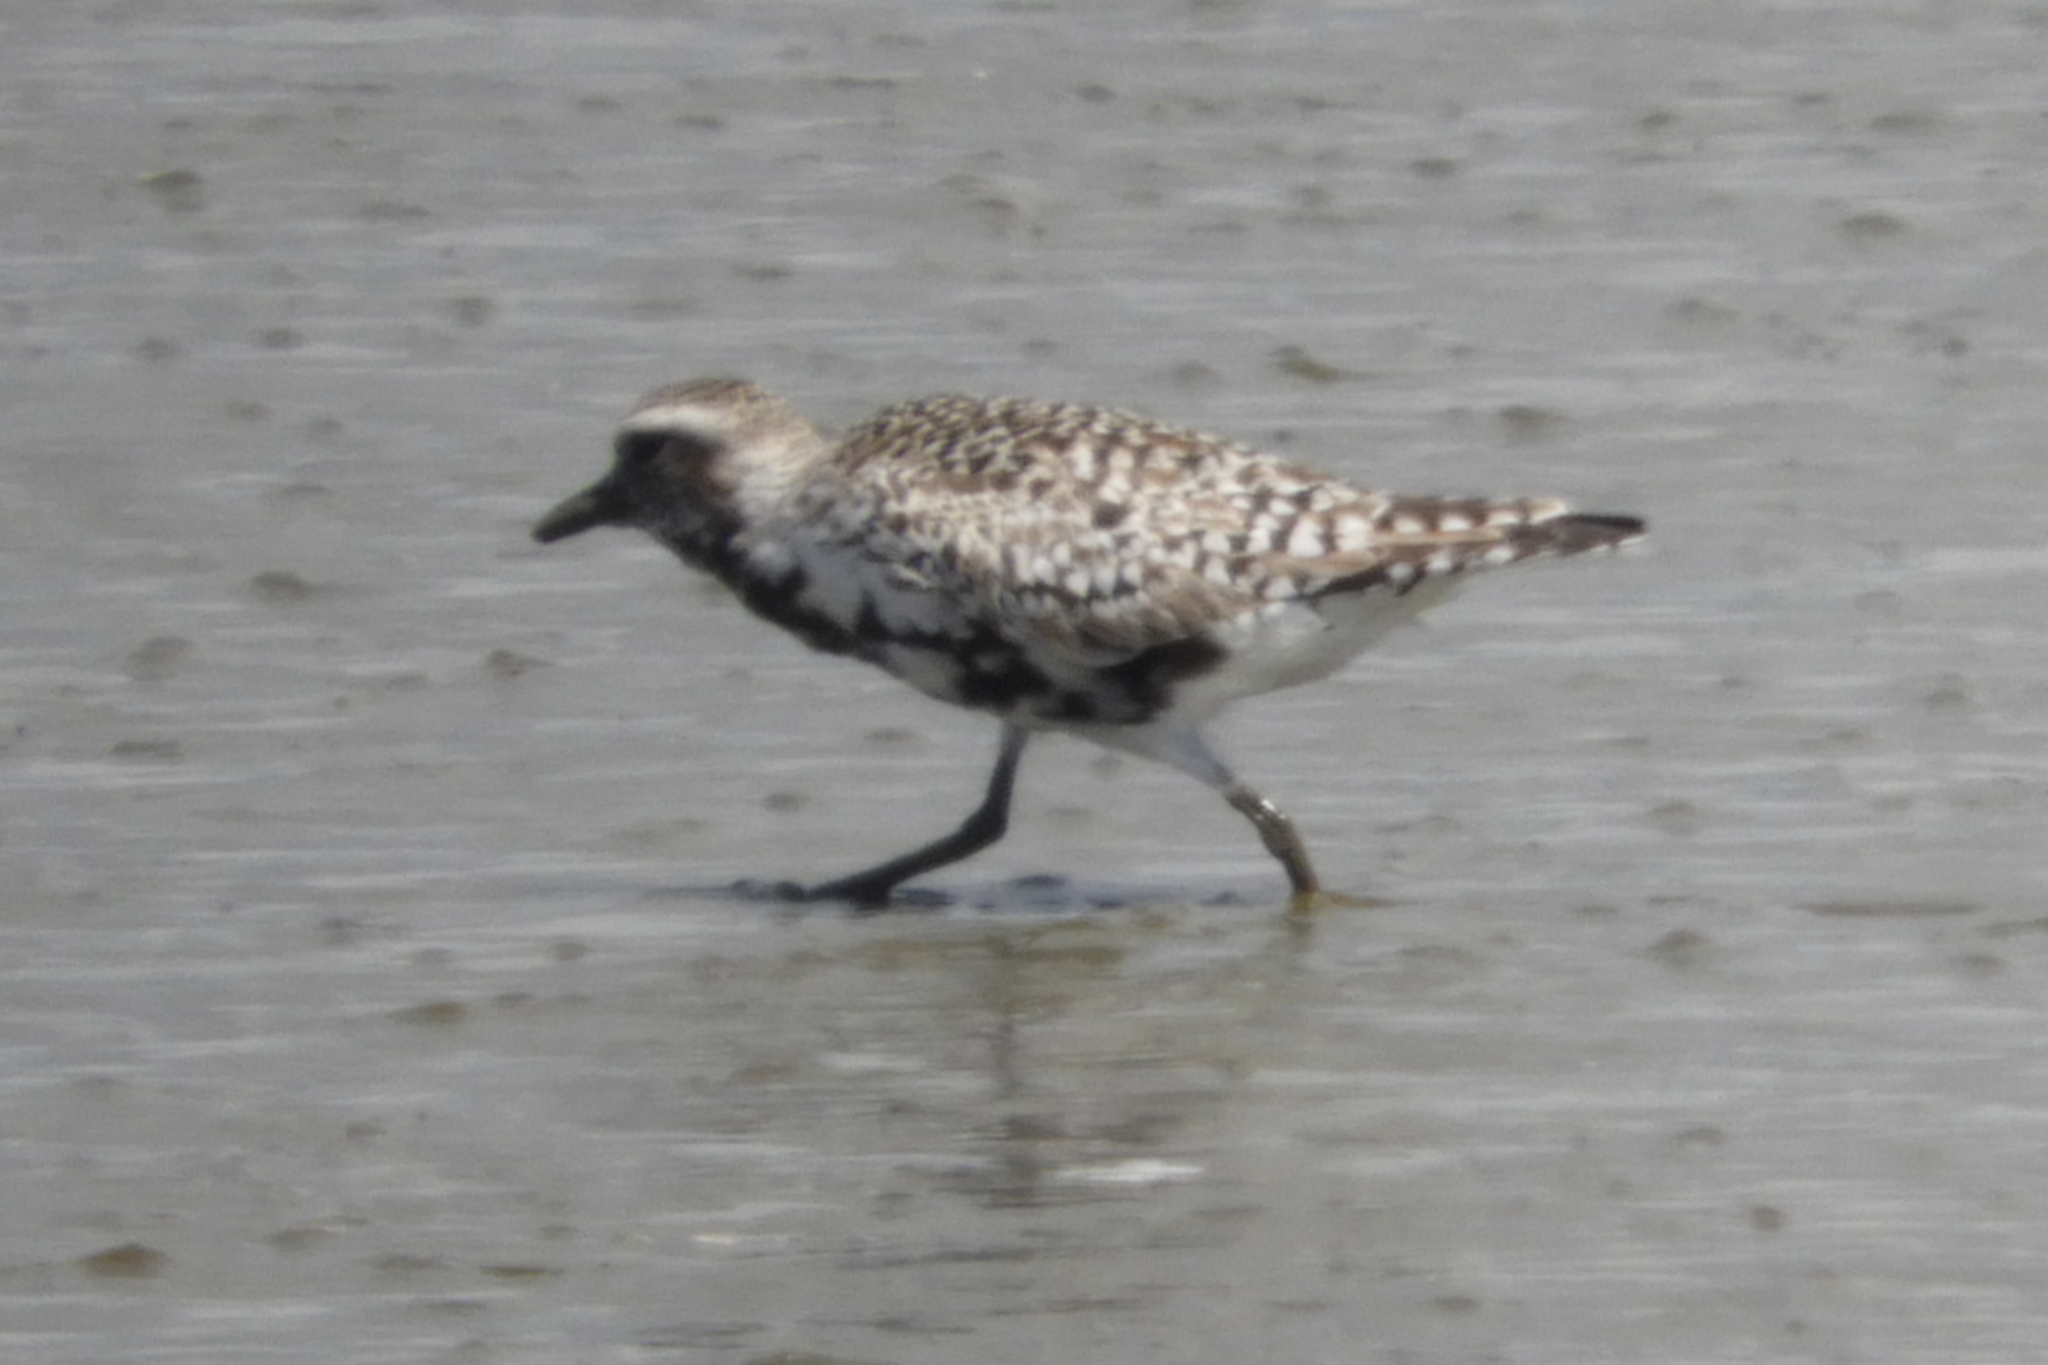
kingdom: Animalia
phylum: Chordata
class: Aves
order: Charadriiformes
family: Charadriidae
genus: Pluvialis
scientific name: Pluvialis squatarola
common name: Grey plover
